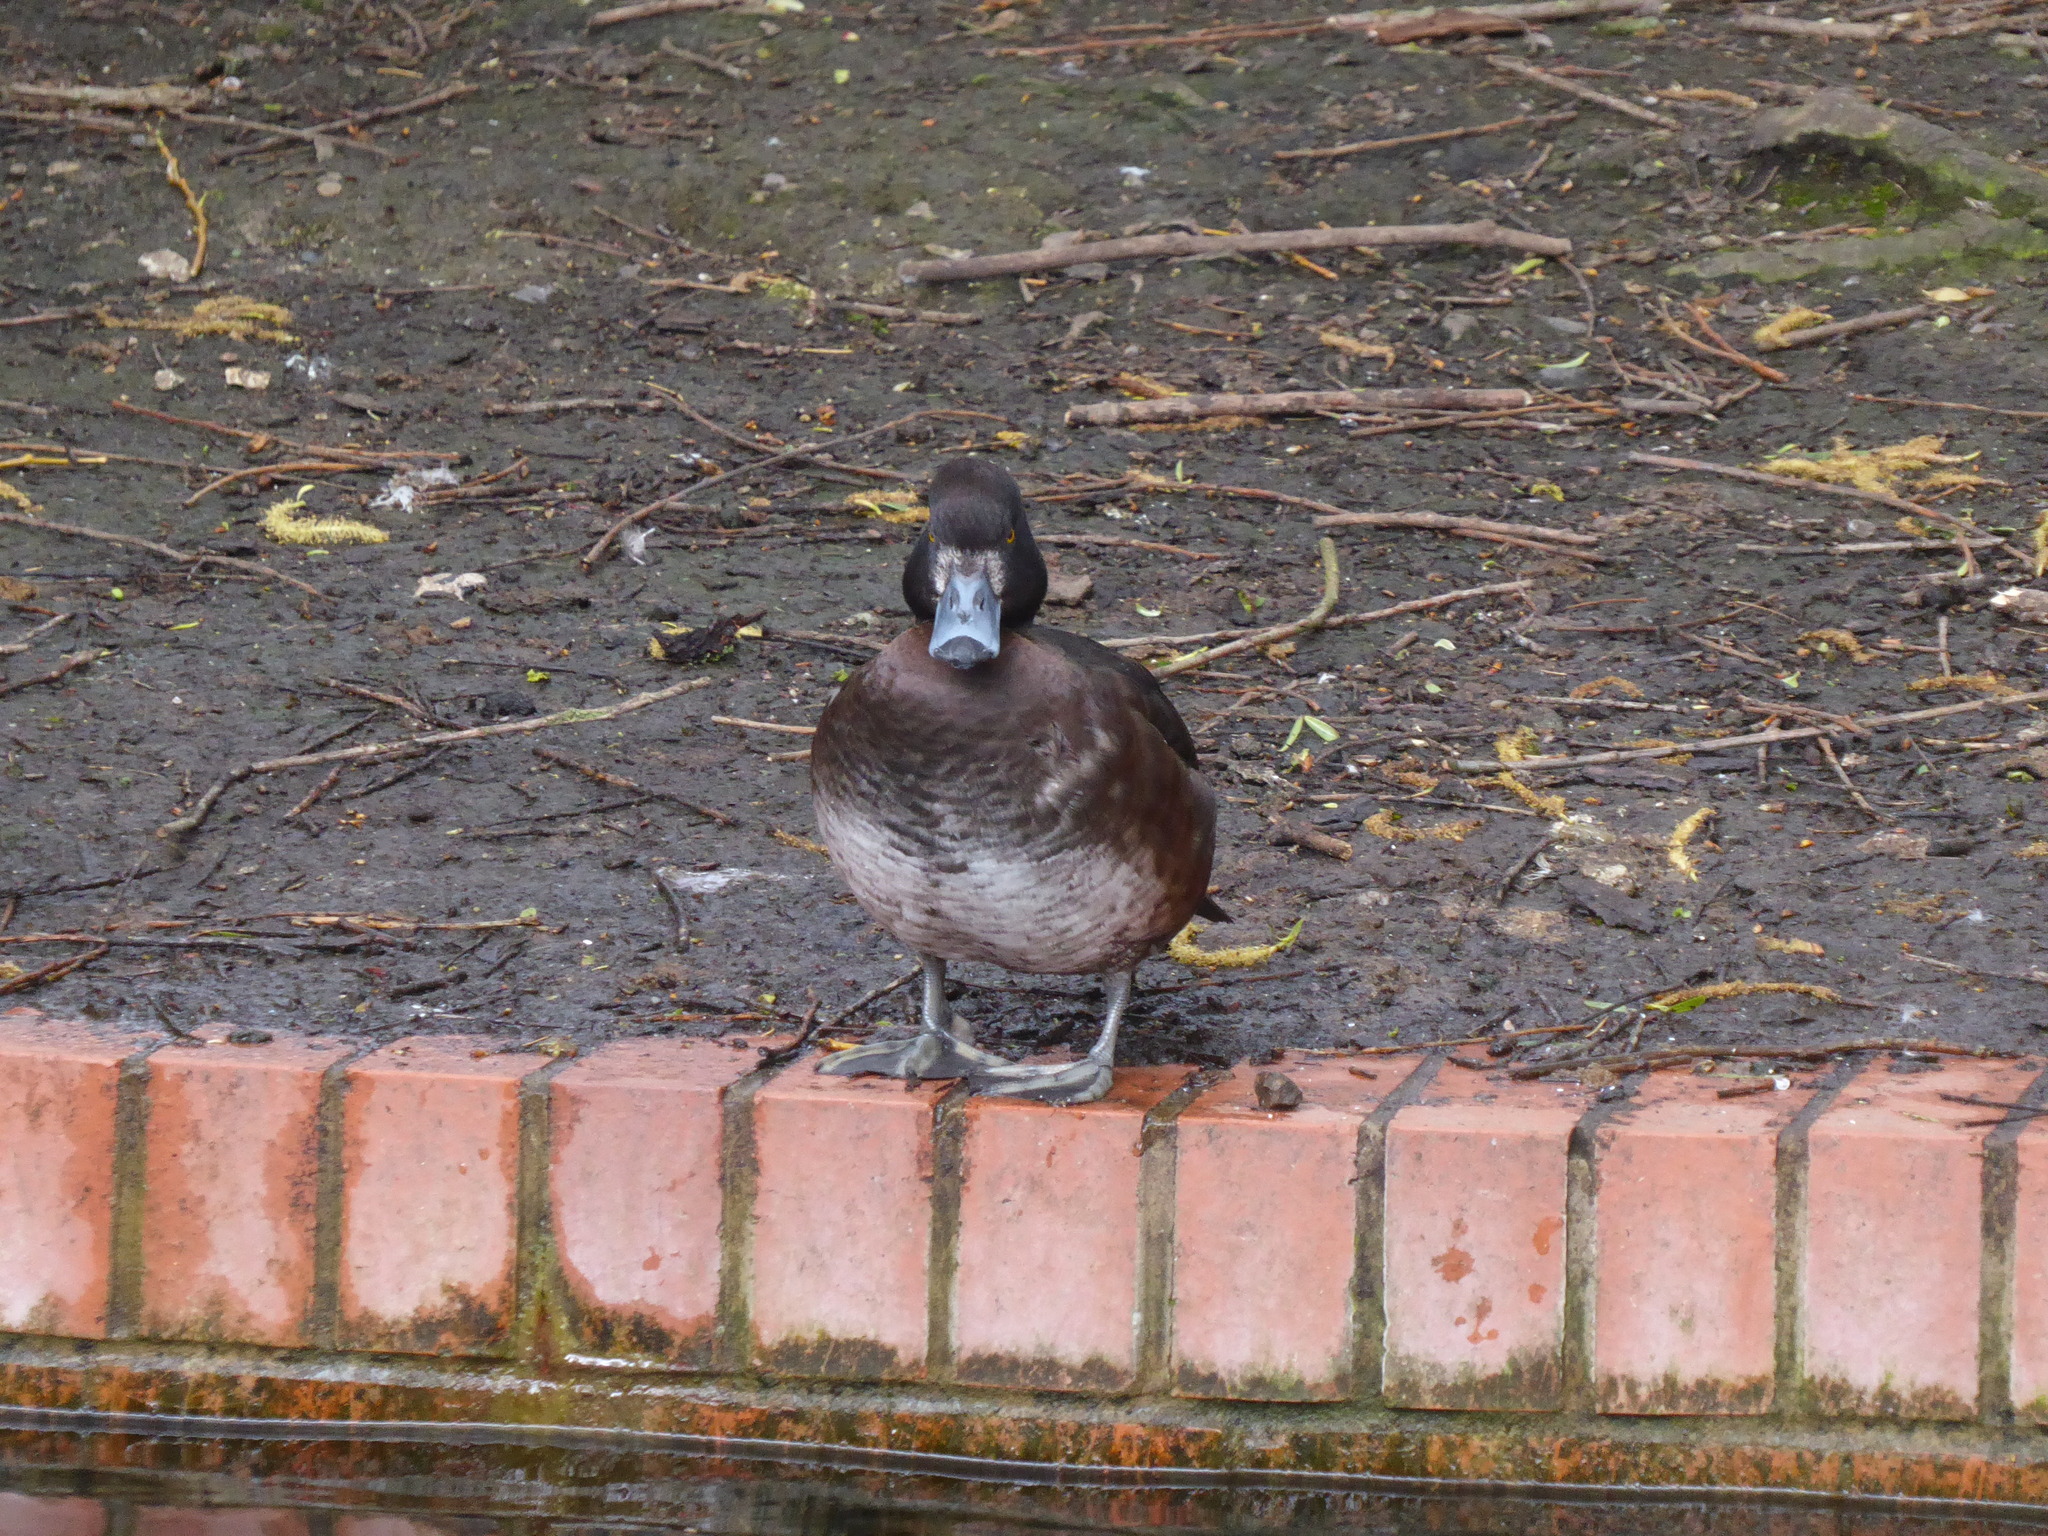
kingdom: Animalia
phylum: Chordata
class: Aves
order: Anseriformes
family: Anatidae
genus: Aythya
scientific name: Aythya fuligula
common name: Tufted duck
